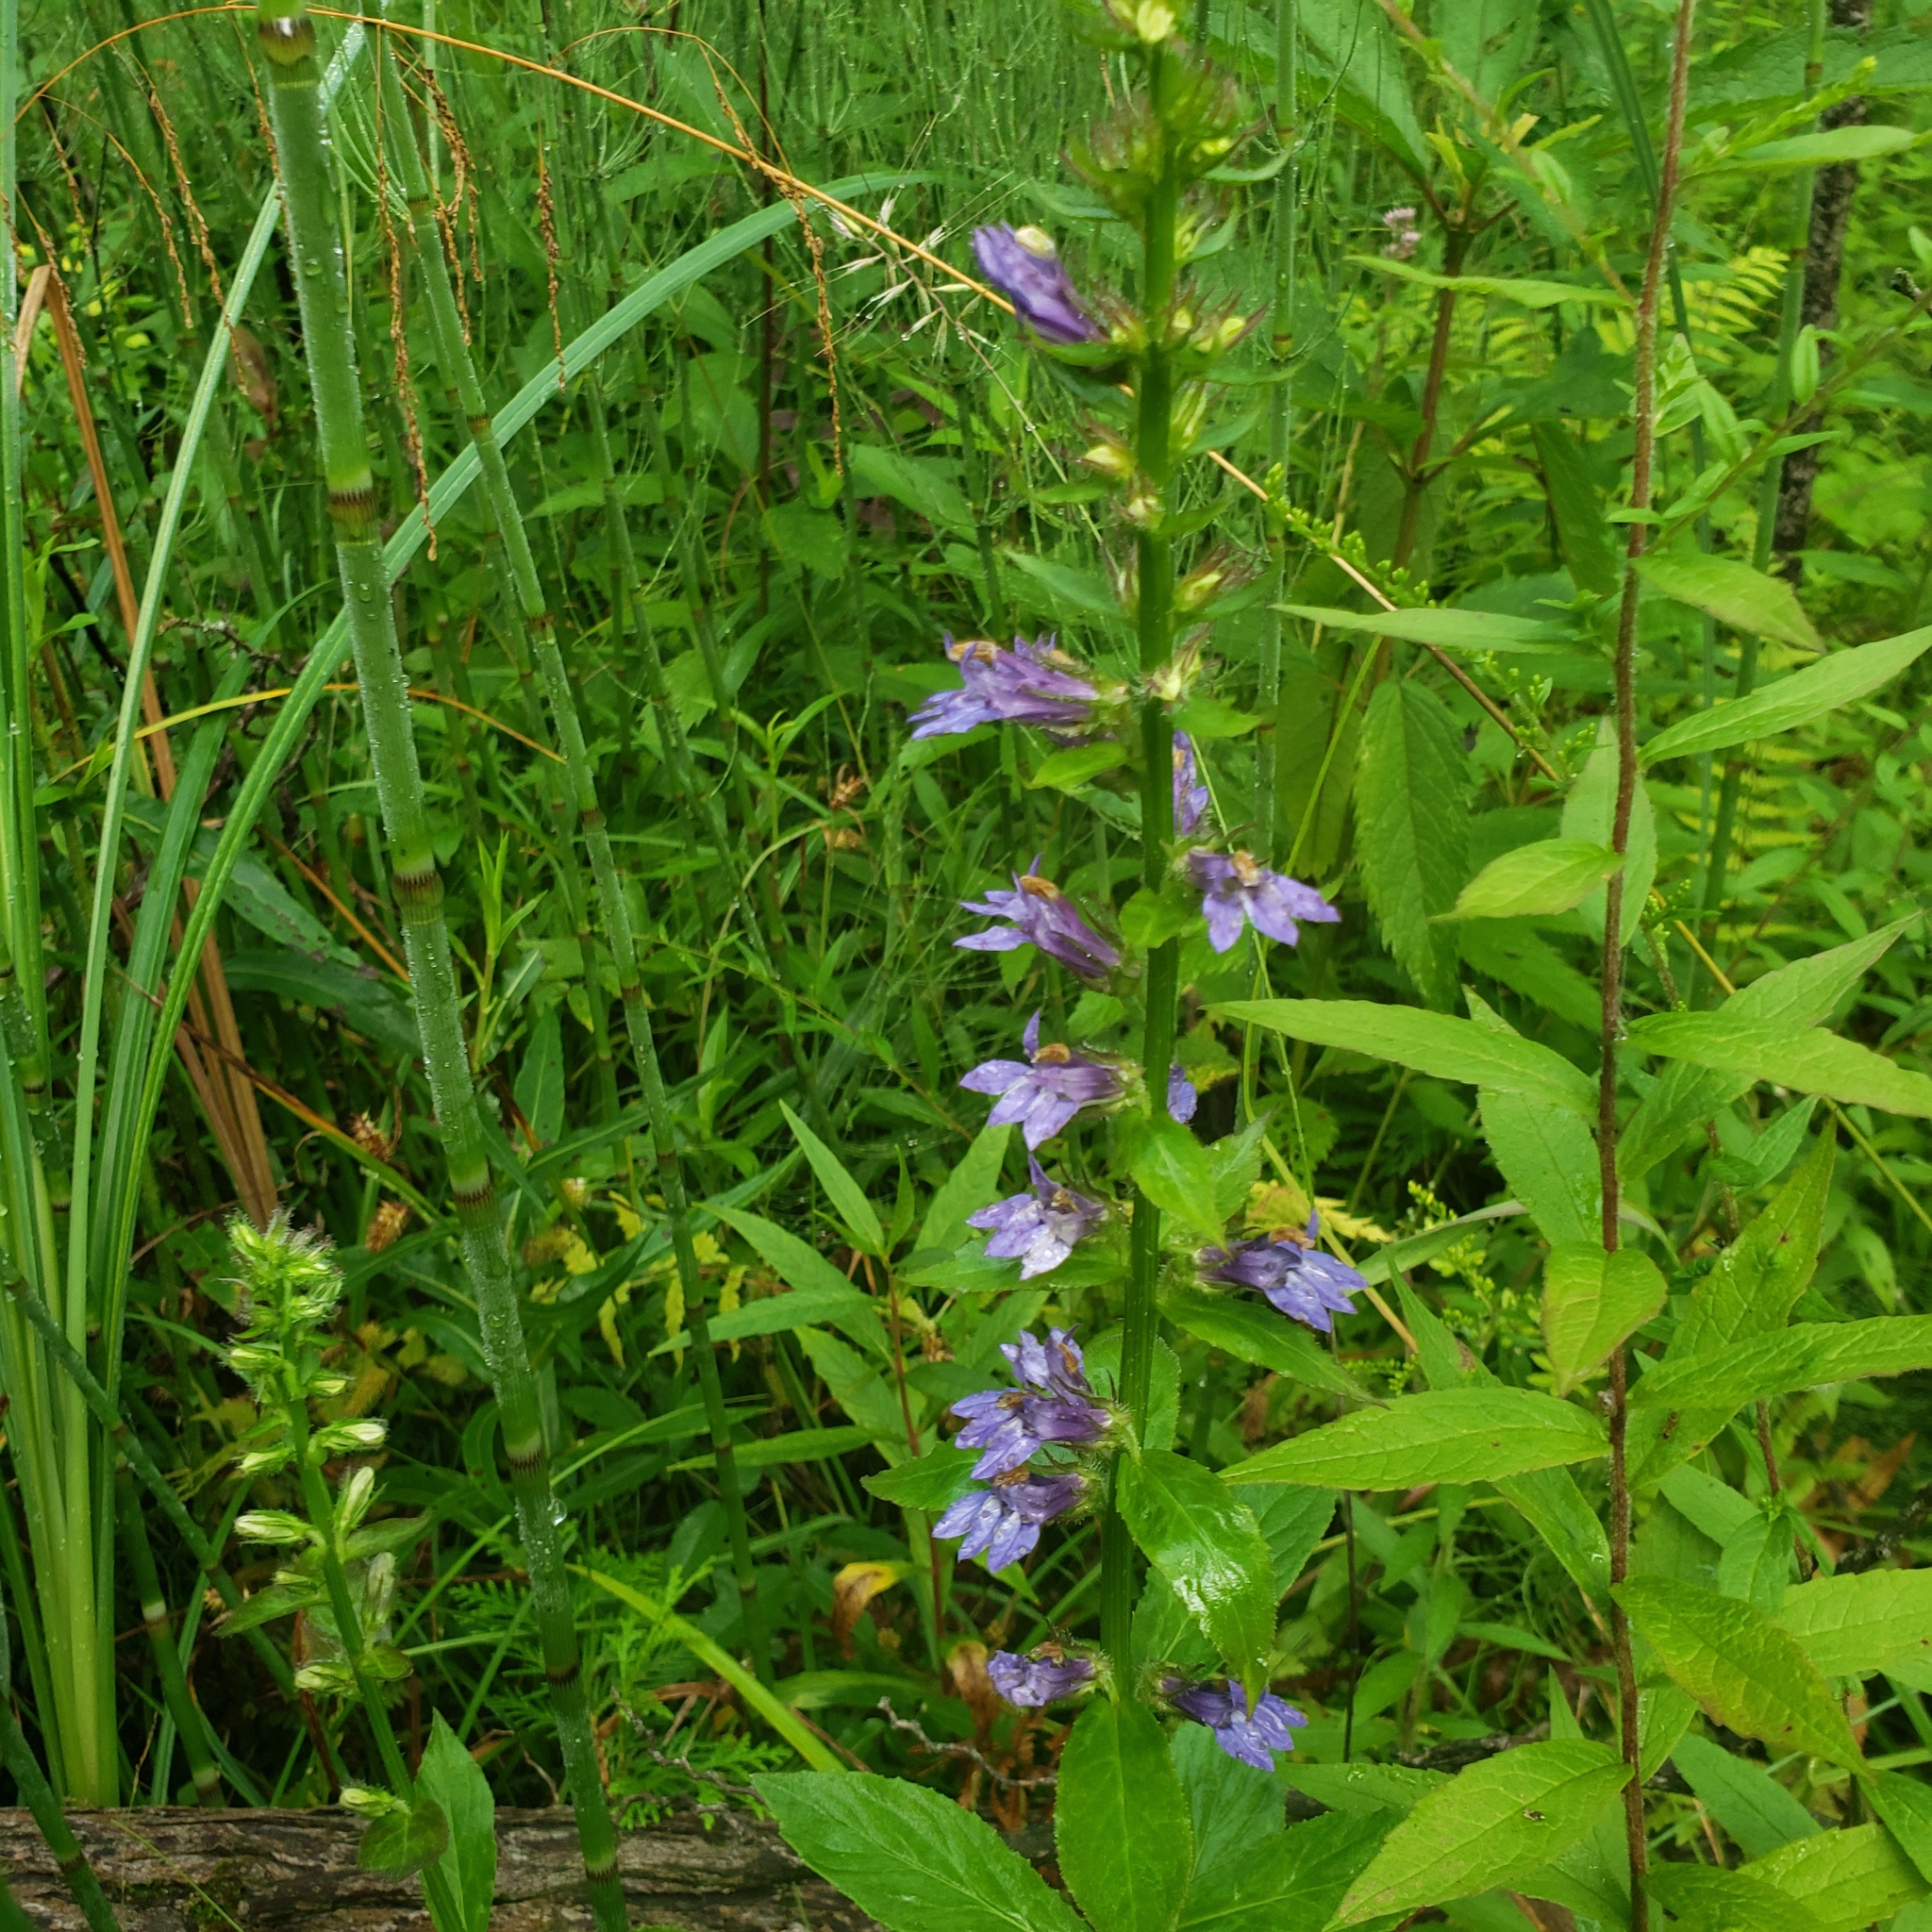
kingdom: Plantae
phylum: Tracheophyta
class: Magnoliopsida
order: Asterales
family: Campanulaceae
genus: Lobelia
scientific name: Lobelia siphilitica
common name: Great lobelia
